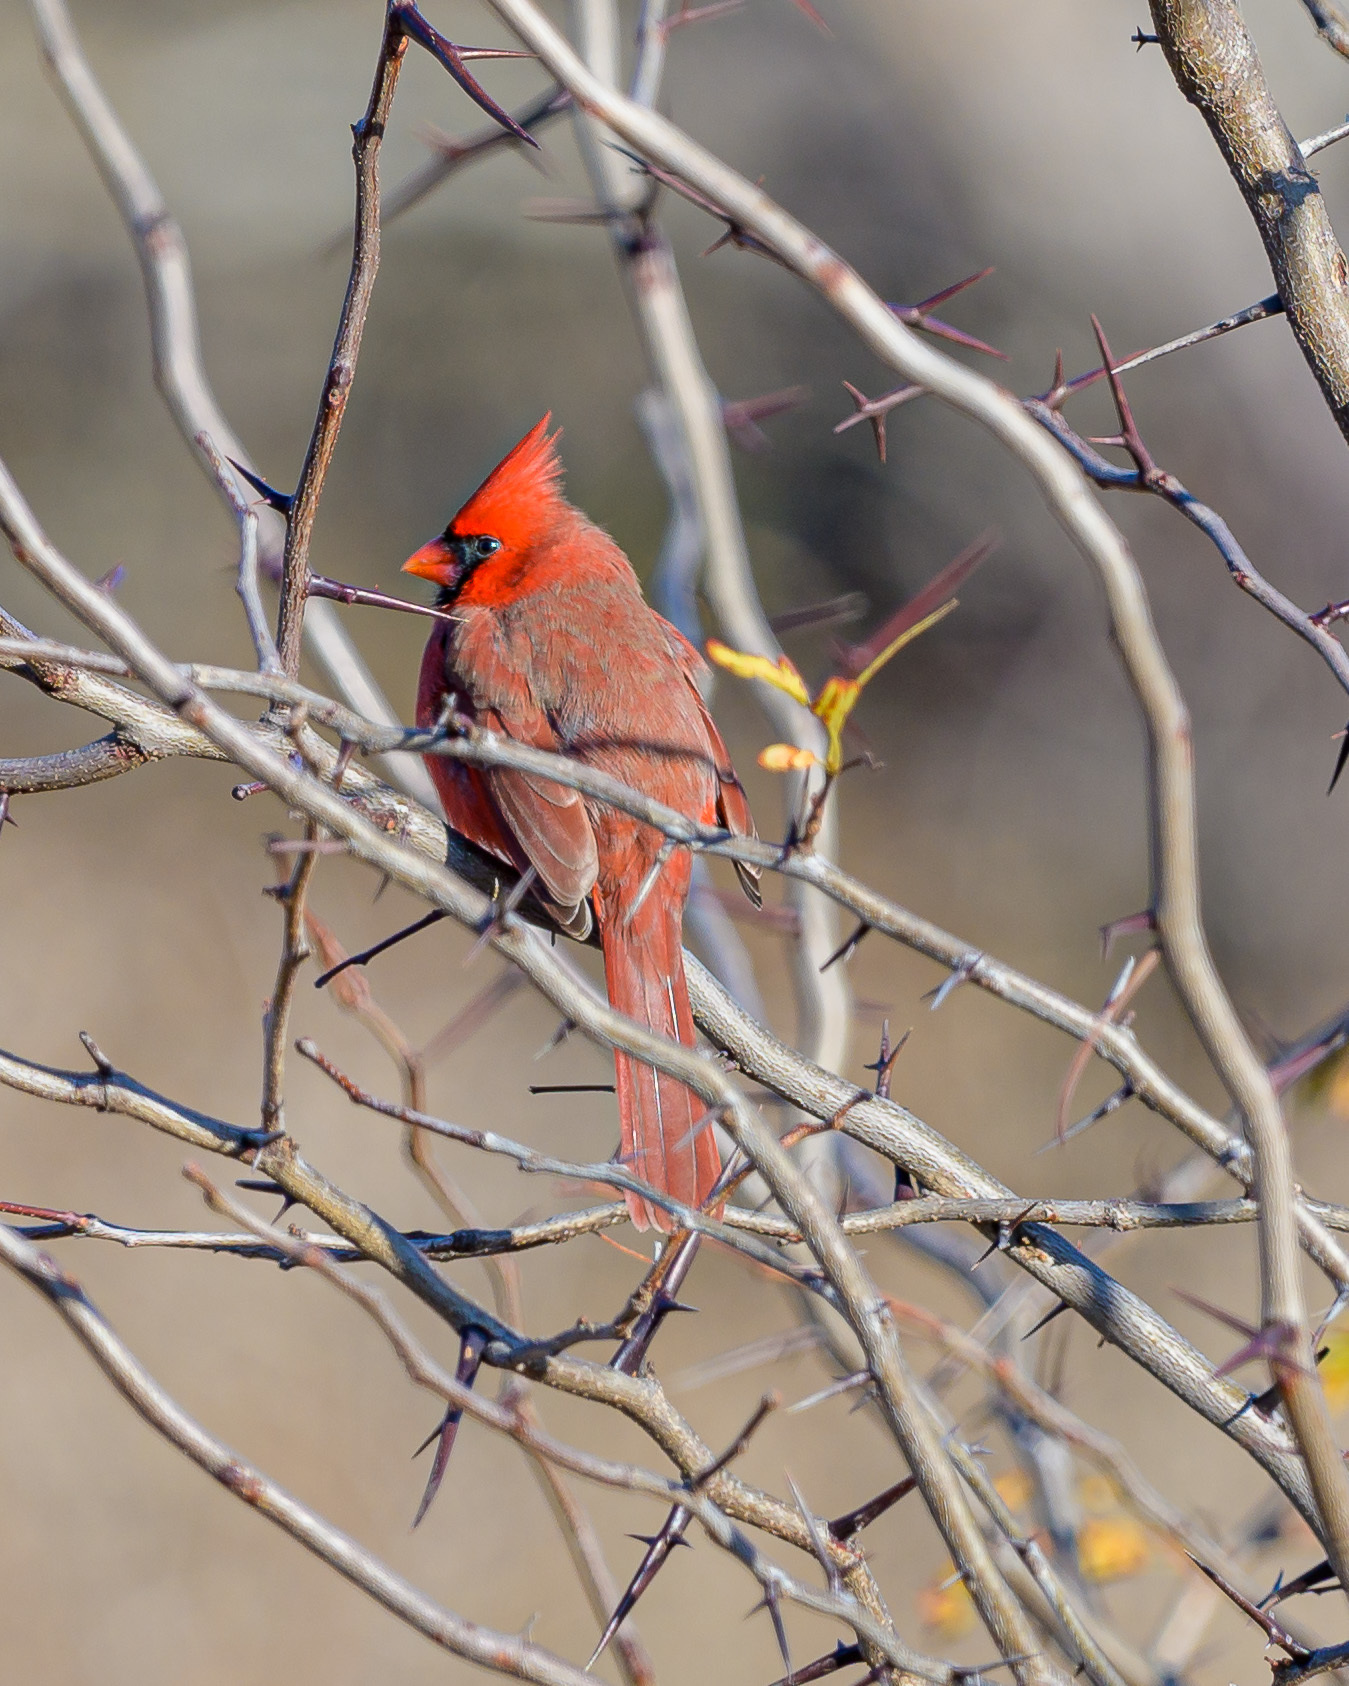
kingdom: Animalia
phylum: Chordata
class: Aves
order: Passeriformes
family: Cardinalidae
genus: Cardinalis
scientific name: Cardinalis cardinalis
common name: Northern cardinal
